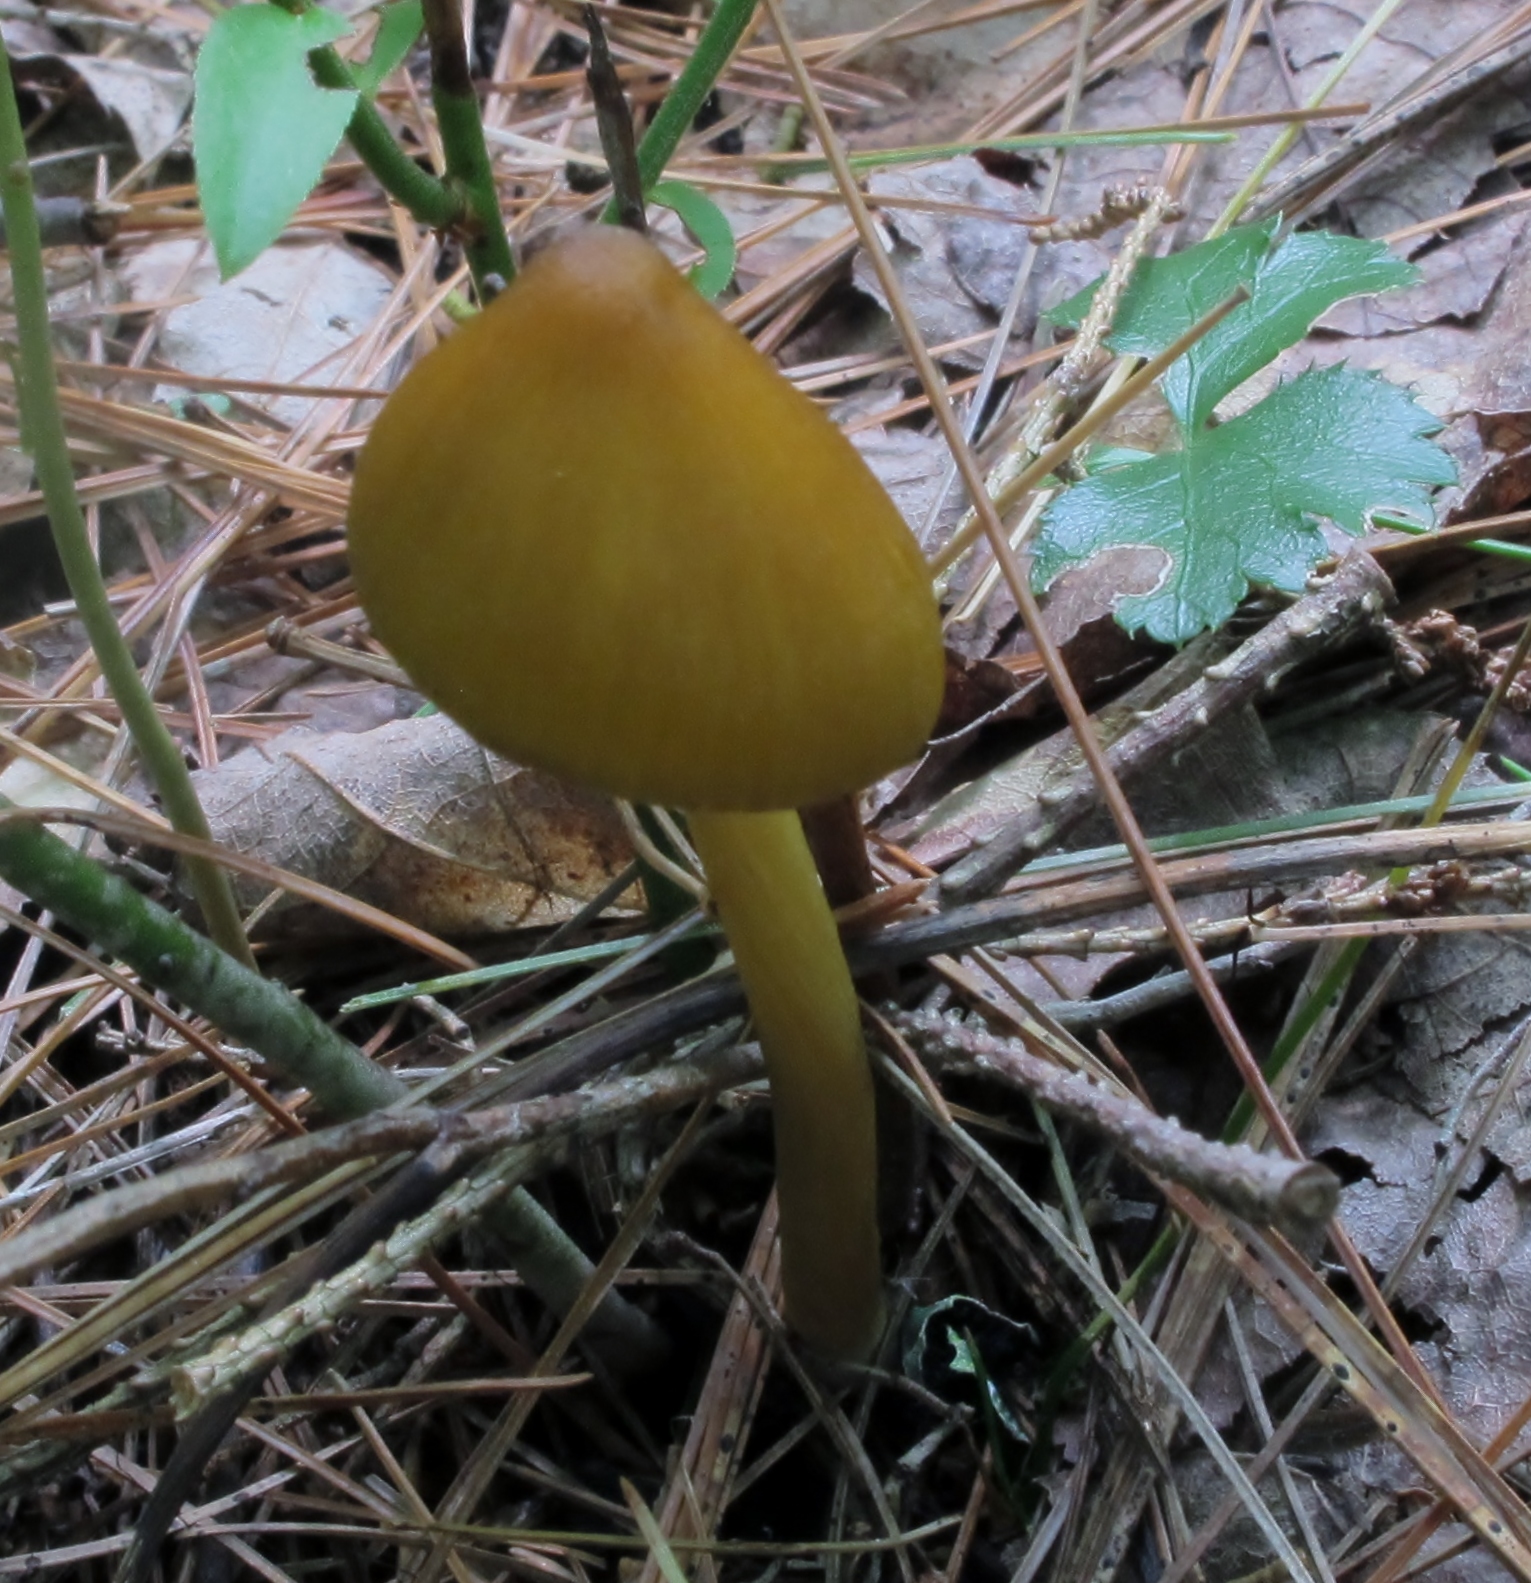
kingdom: Fungi
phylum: Basidiomycota
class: Agaricomycetes
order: Agaricales
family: Entolomataceae
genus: Entoloma
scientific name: Entoloma luteum
